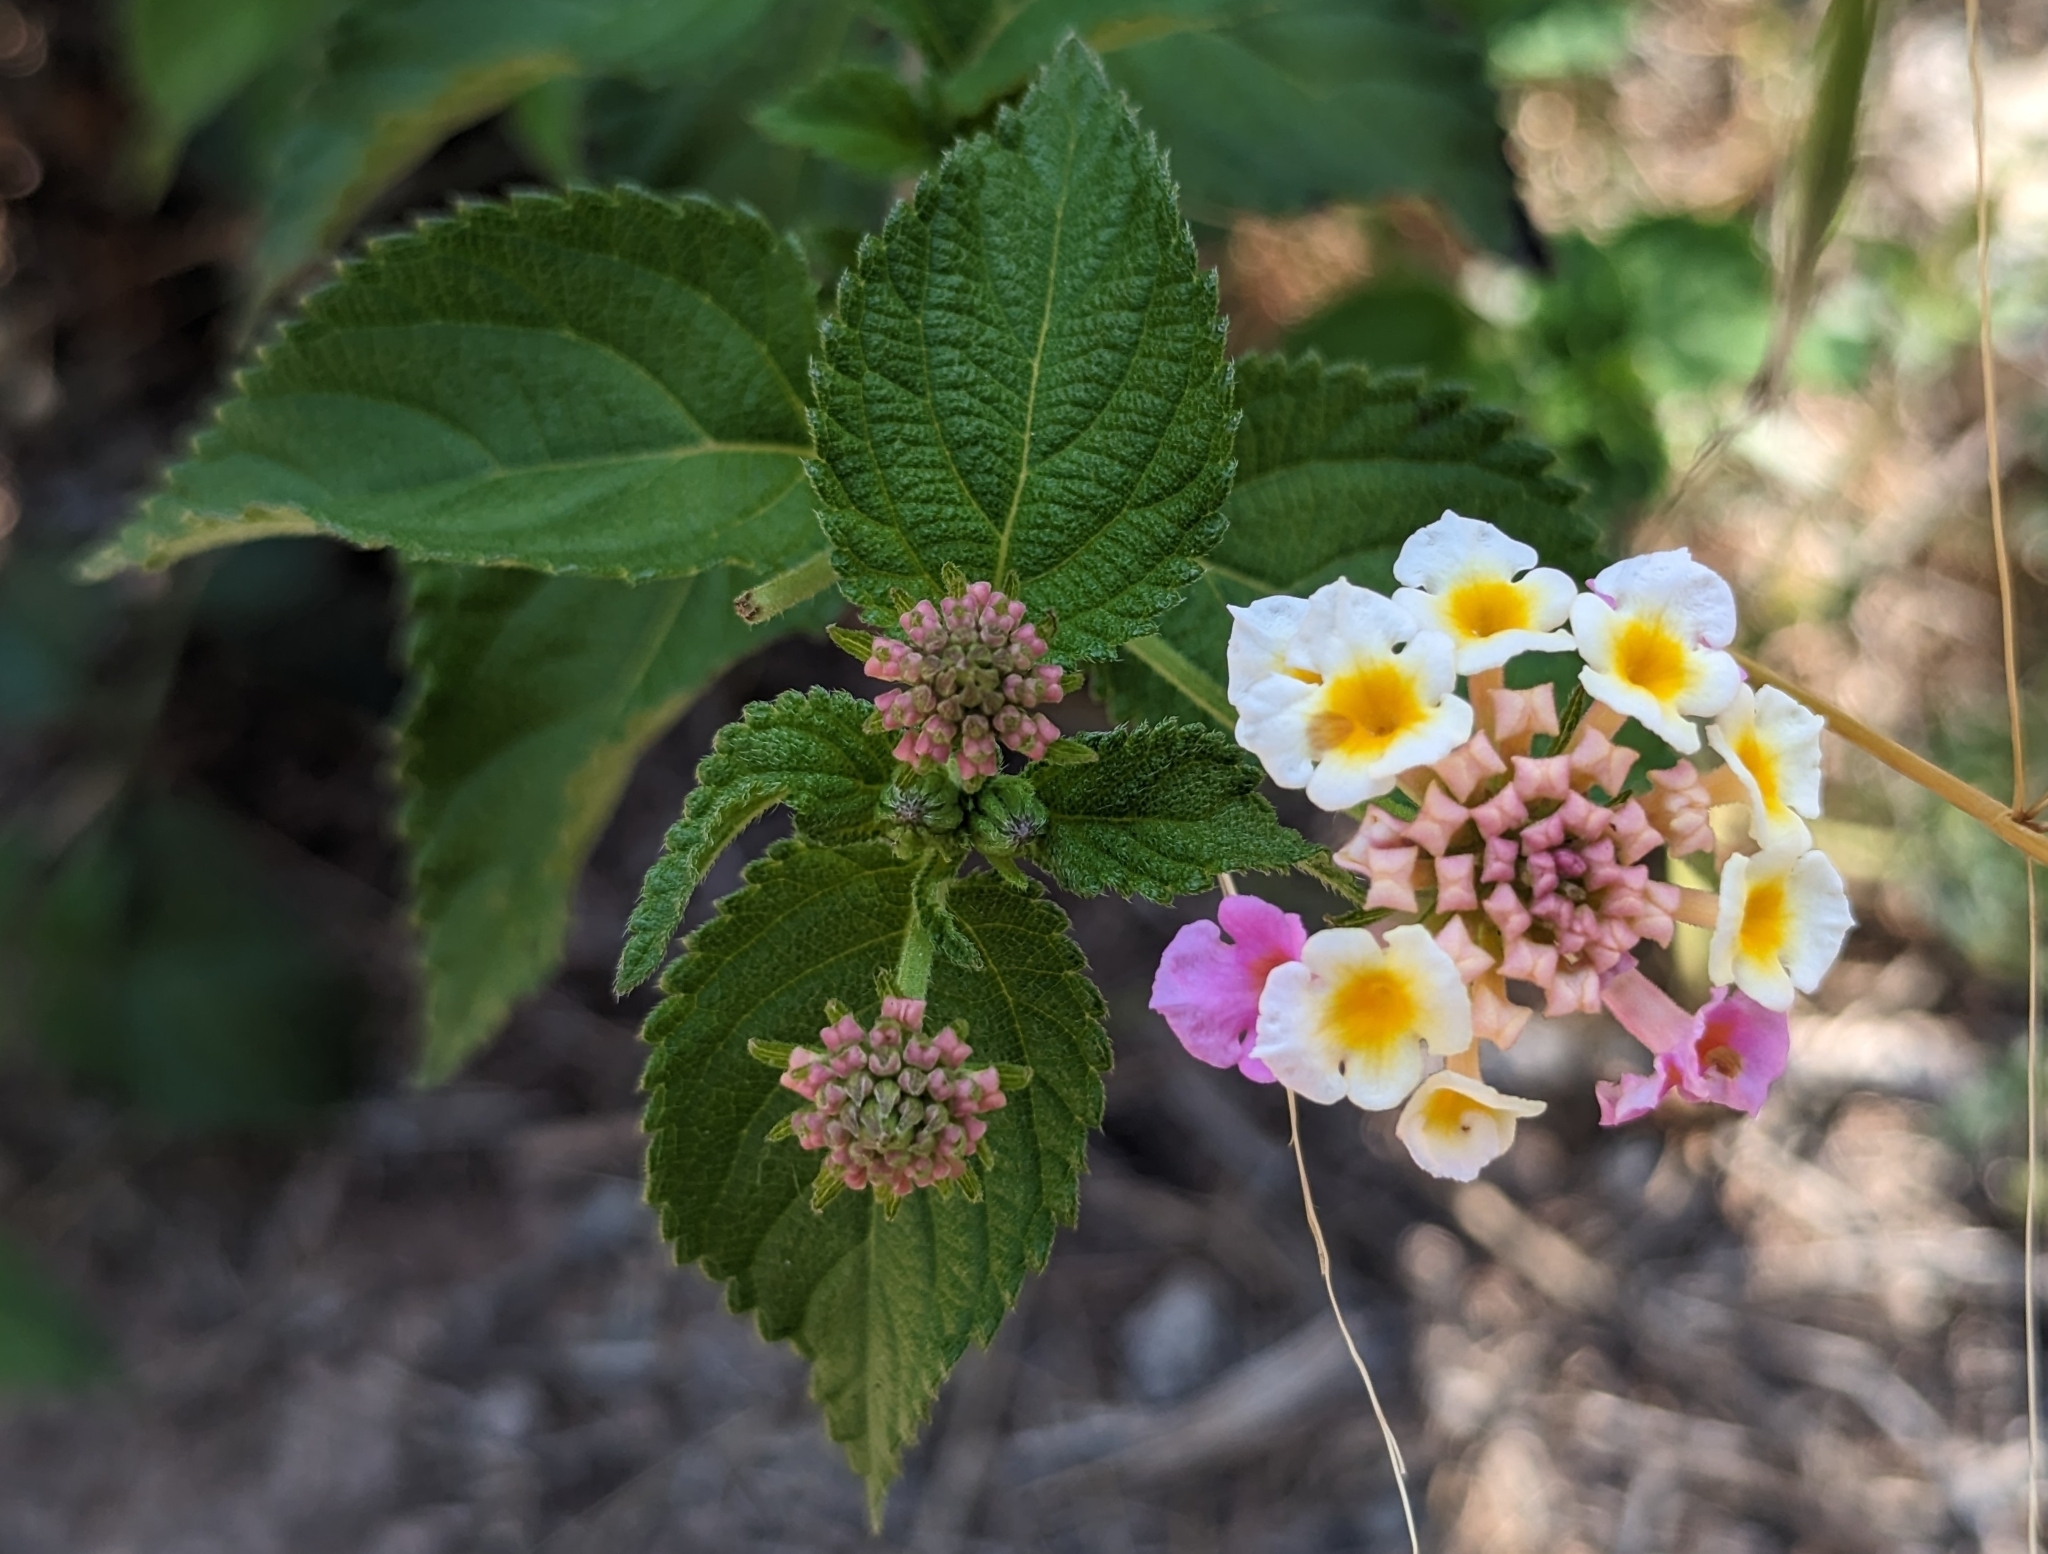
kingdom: Plantae
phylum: Tracheophyta
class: Magnoliopsida
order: Lamiales
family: Verbenaceae
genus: Lantana
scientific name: Lantana camara
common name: Lantana
